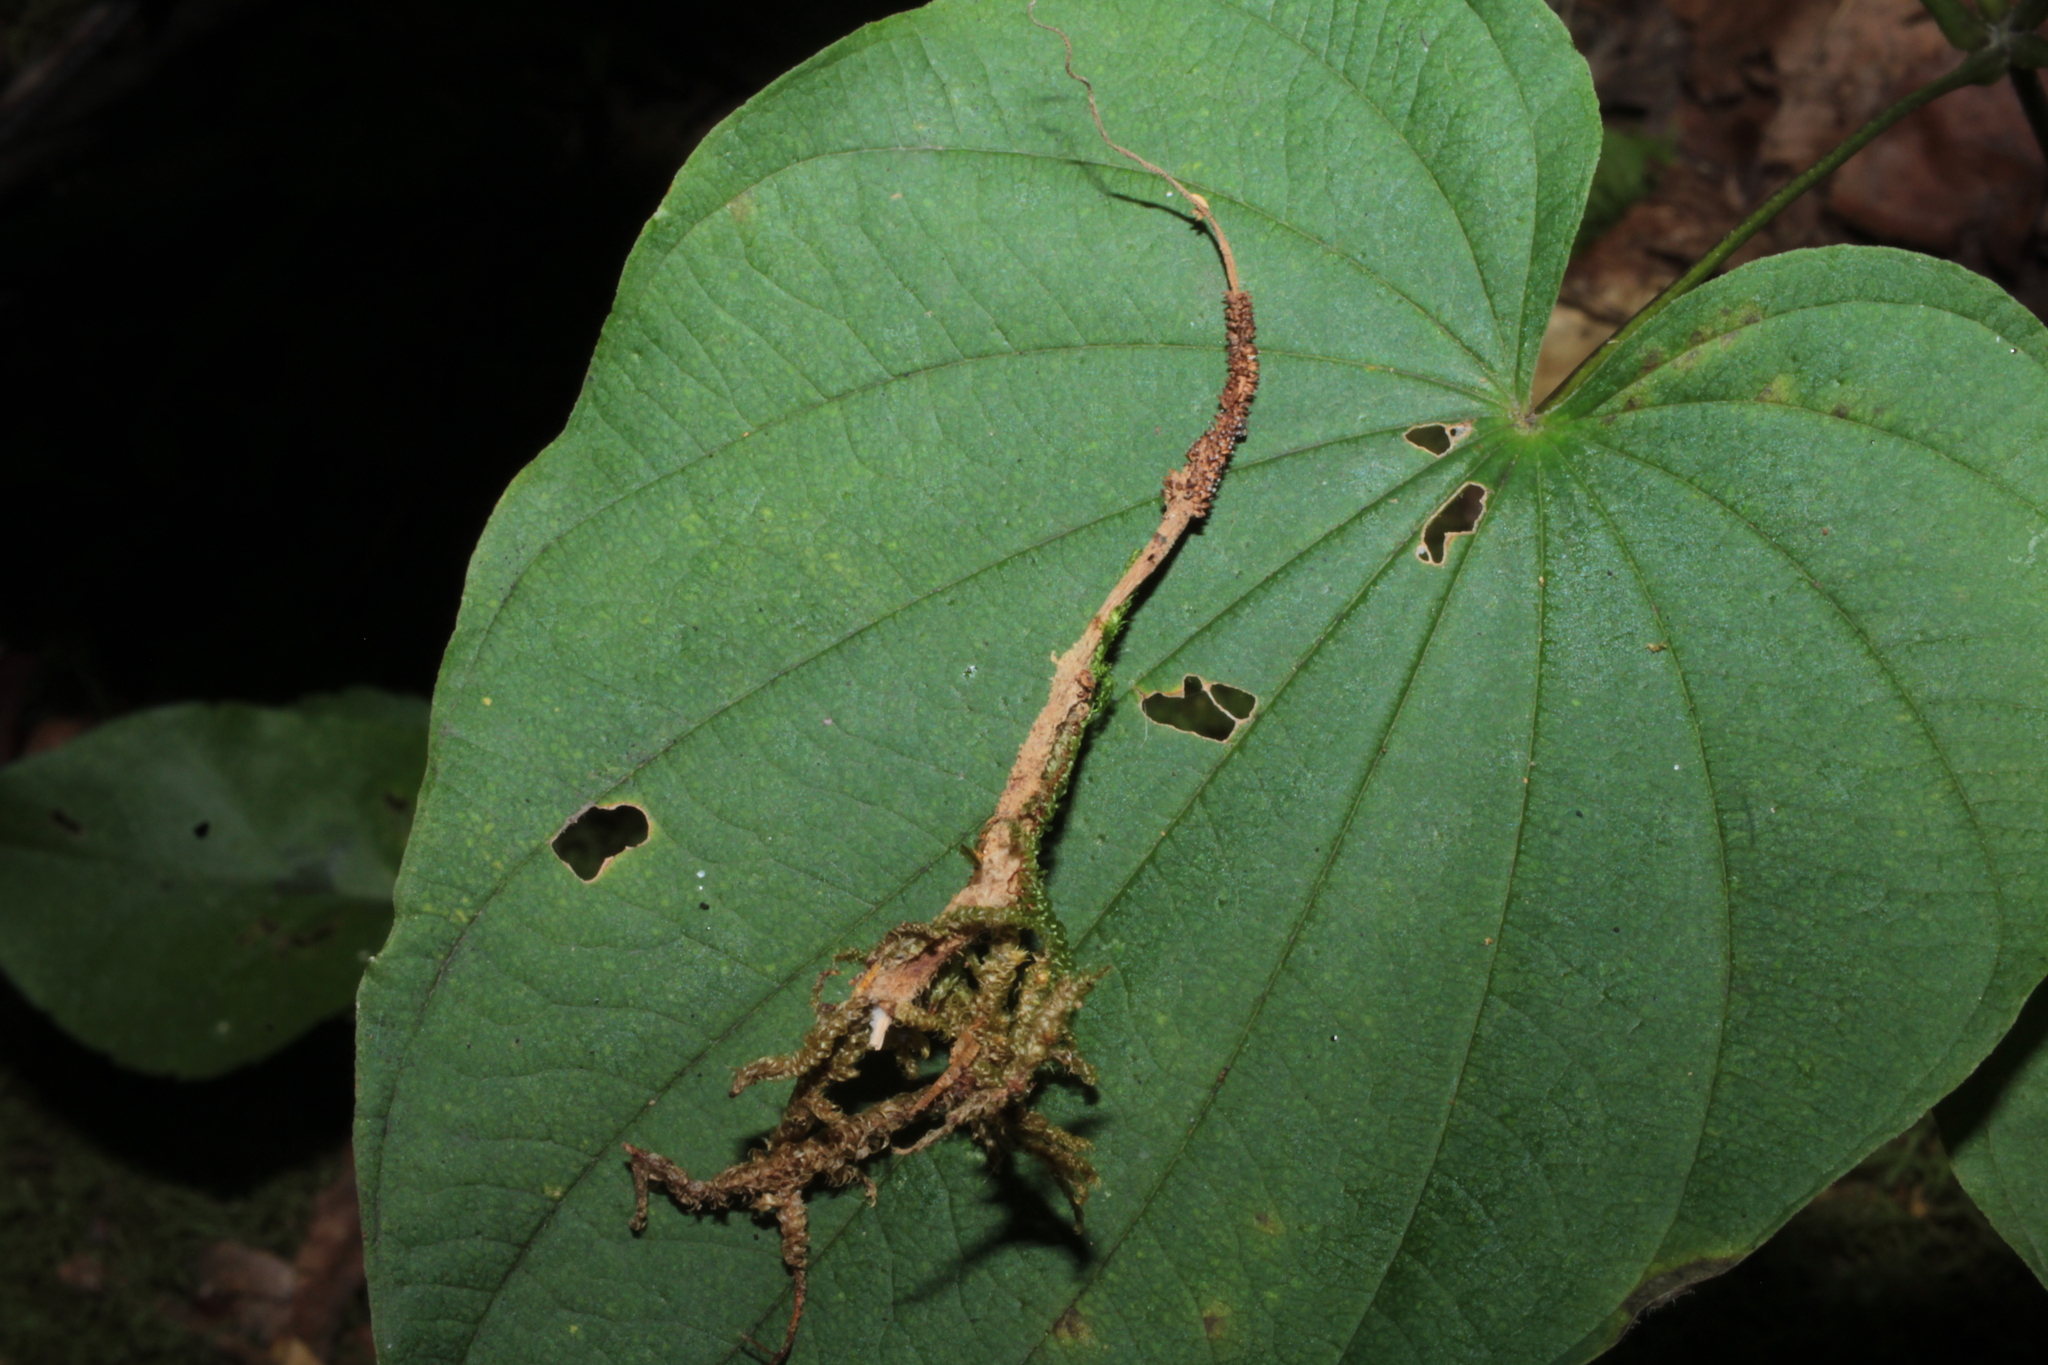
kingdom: Fungi
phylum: Ascomycota
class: Sordariomycetes
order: Hypocreales
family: Cordycipitaceae
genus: Cordyceps
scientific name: Cordyceps militaris
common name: Scarlet caterpillar fungus
